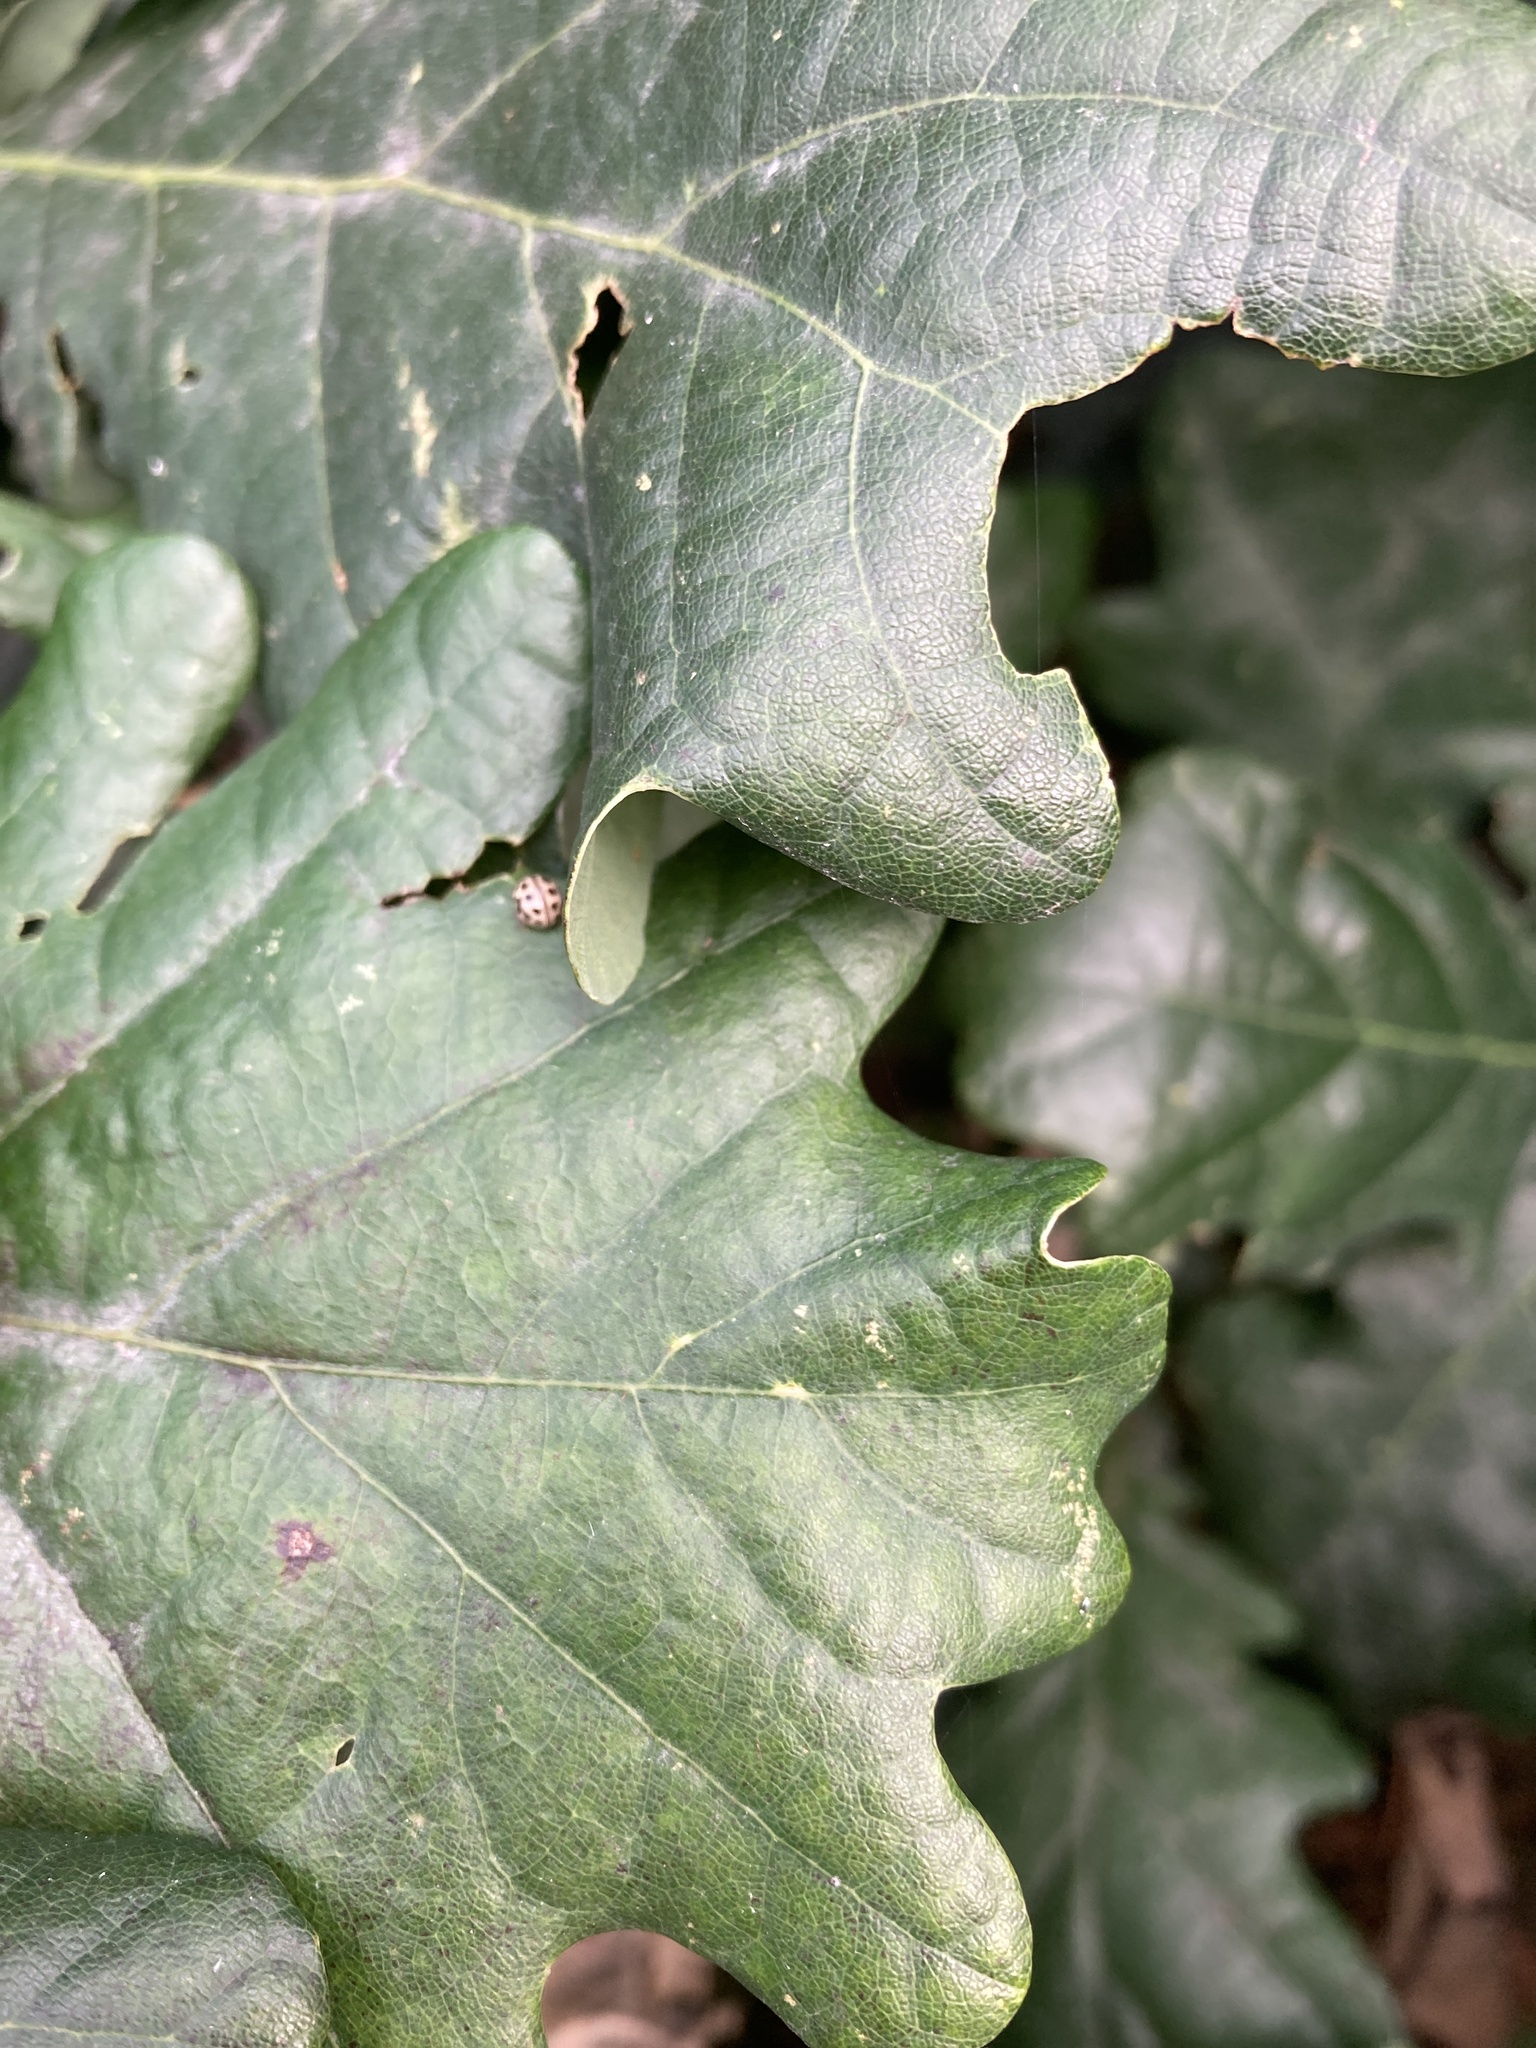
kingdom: Animalia
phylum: Arthropoda
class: Insecta
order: Coleoptera
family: Coccinellidae
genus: Tytthaspis
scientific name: Tytthaspis sedecimpunctata
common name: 16-spot ladybird
